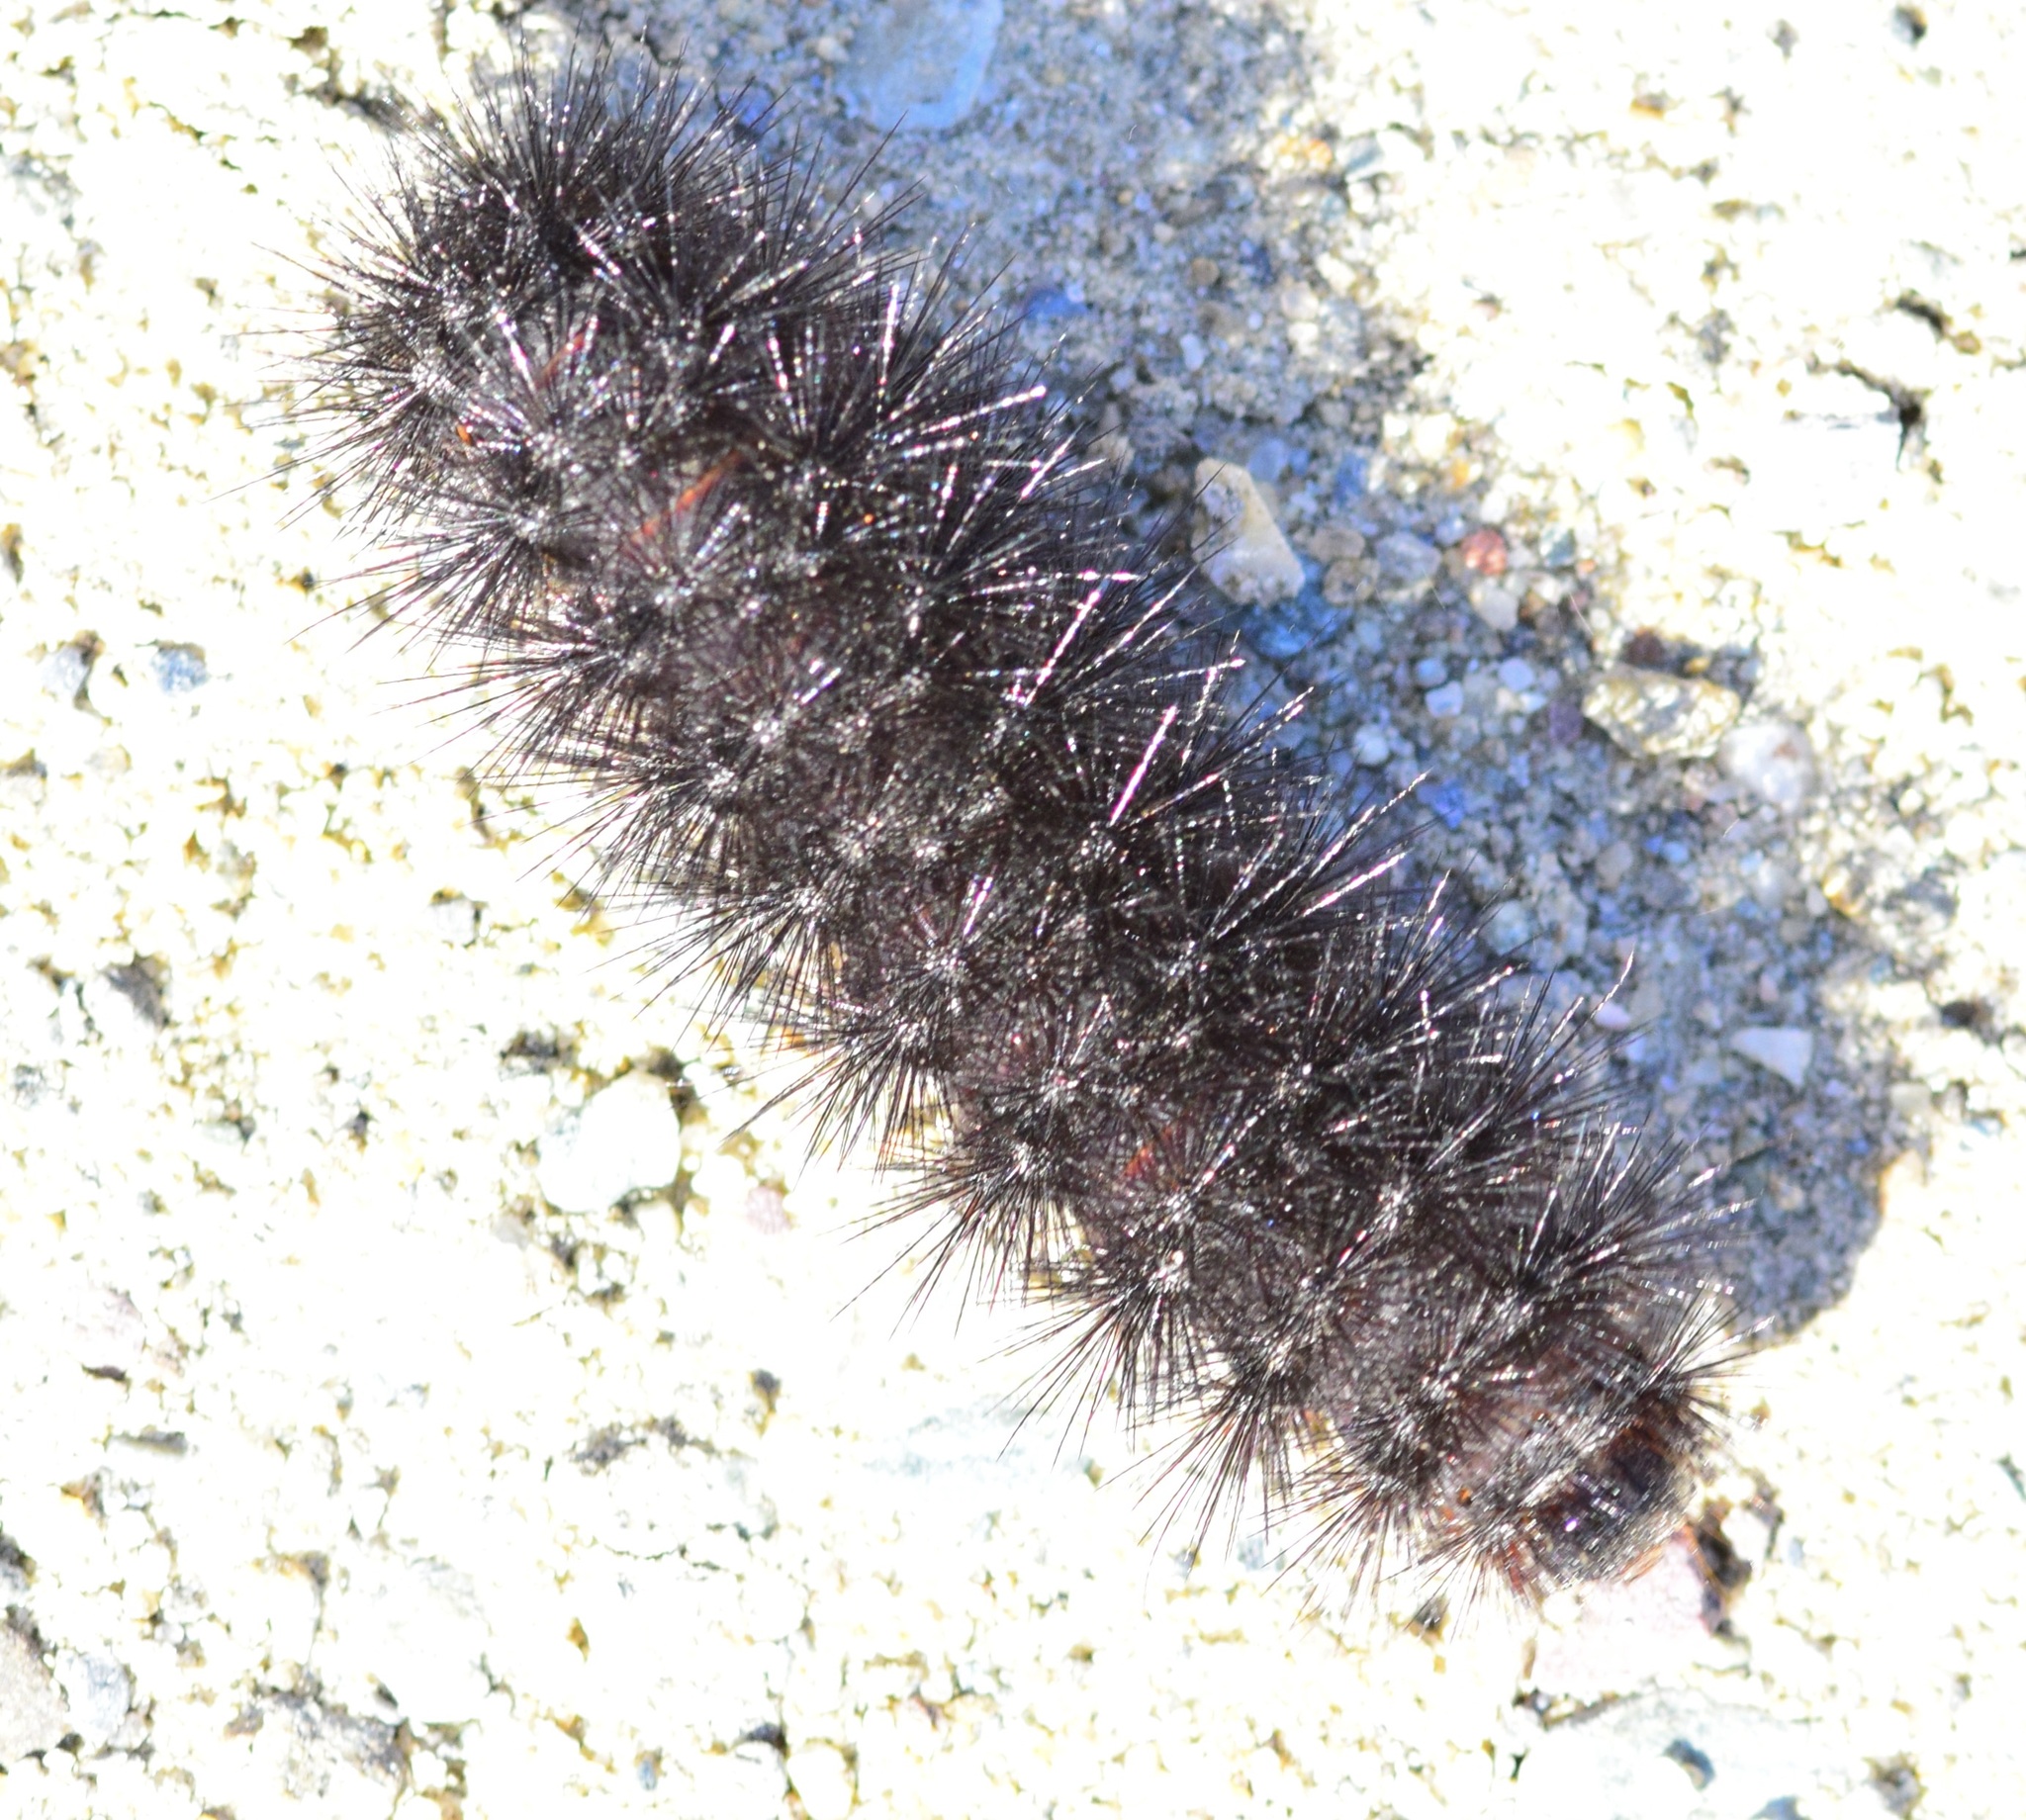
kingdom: Animalia
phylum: Arthropoda
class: Insecta
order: Lepidoptera
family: Erebidae
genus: Hypercompe
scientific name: Hypercompe scribonia
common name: Giant leopard moth
